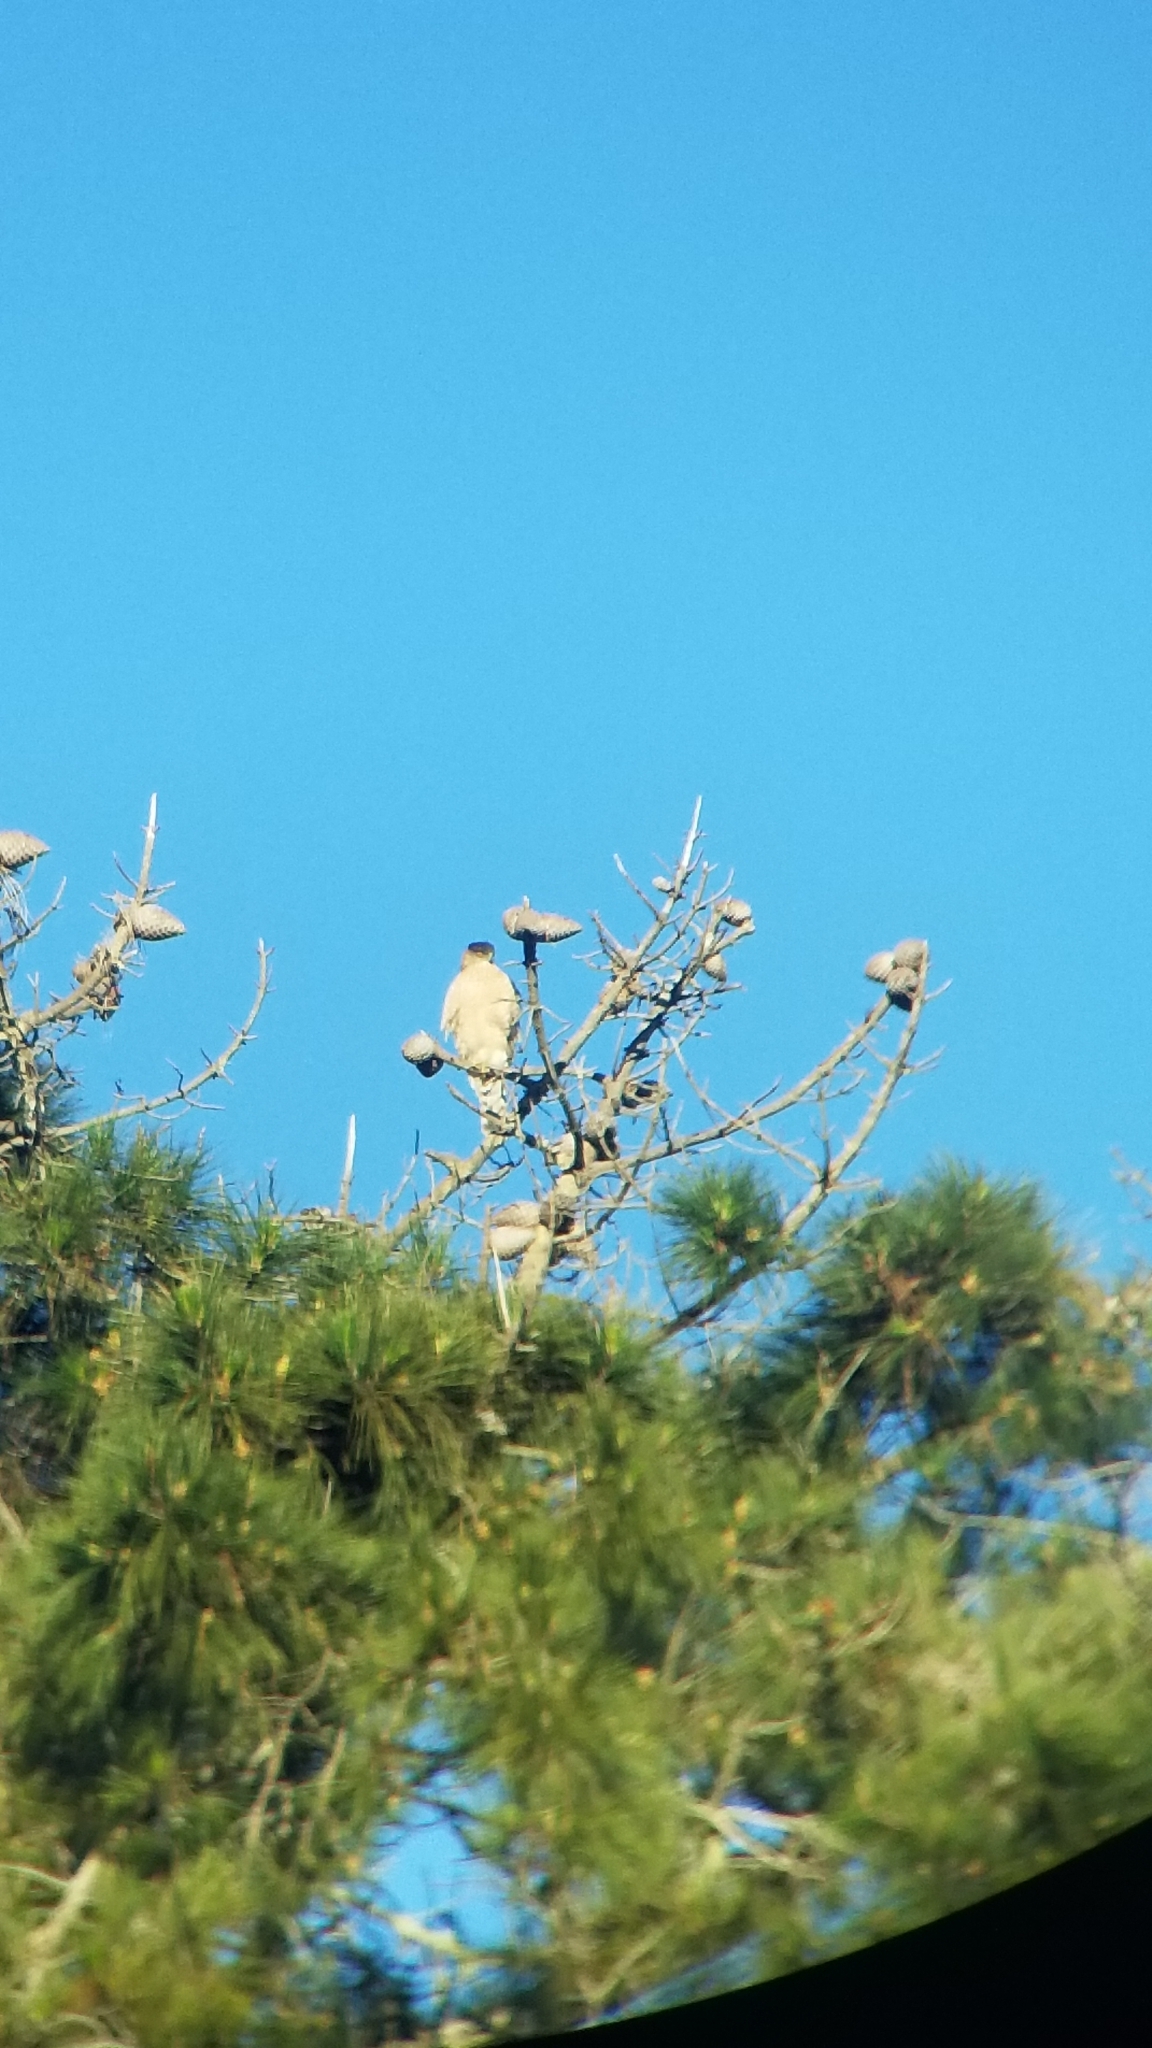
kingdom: Animalia
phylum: Chordata
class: Aves
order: Accipitriformes
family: Accipitridae
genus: Accipiter
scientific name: Accipiter cooperii
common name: Cooper's hawk
